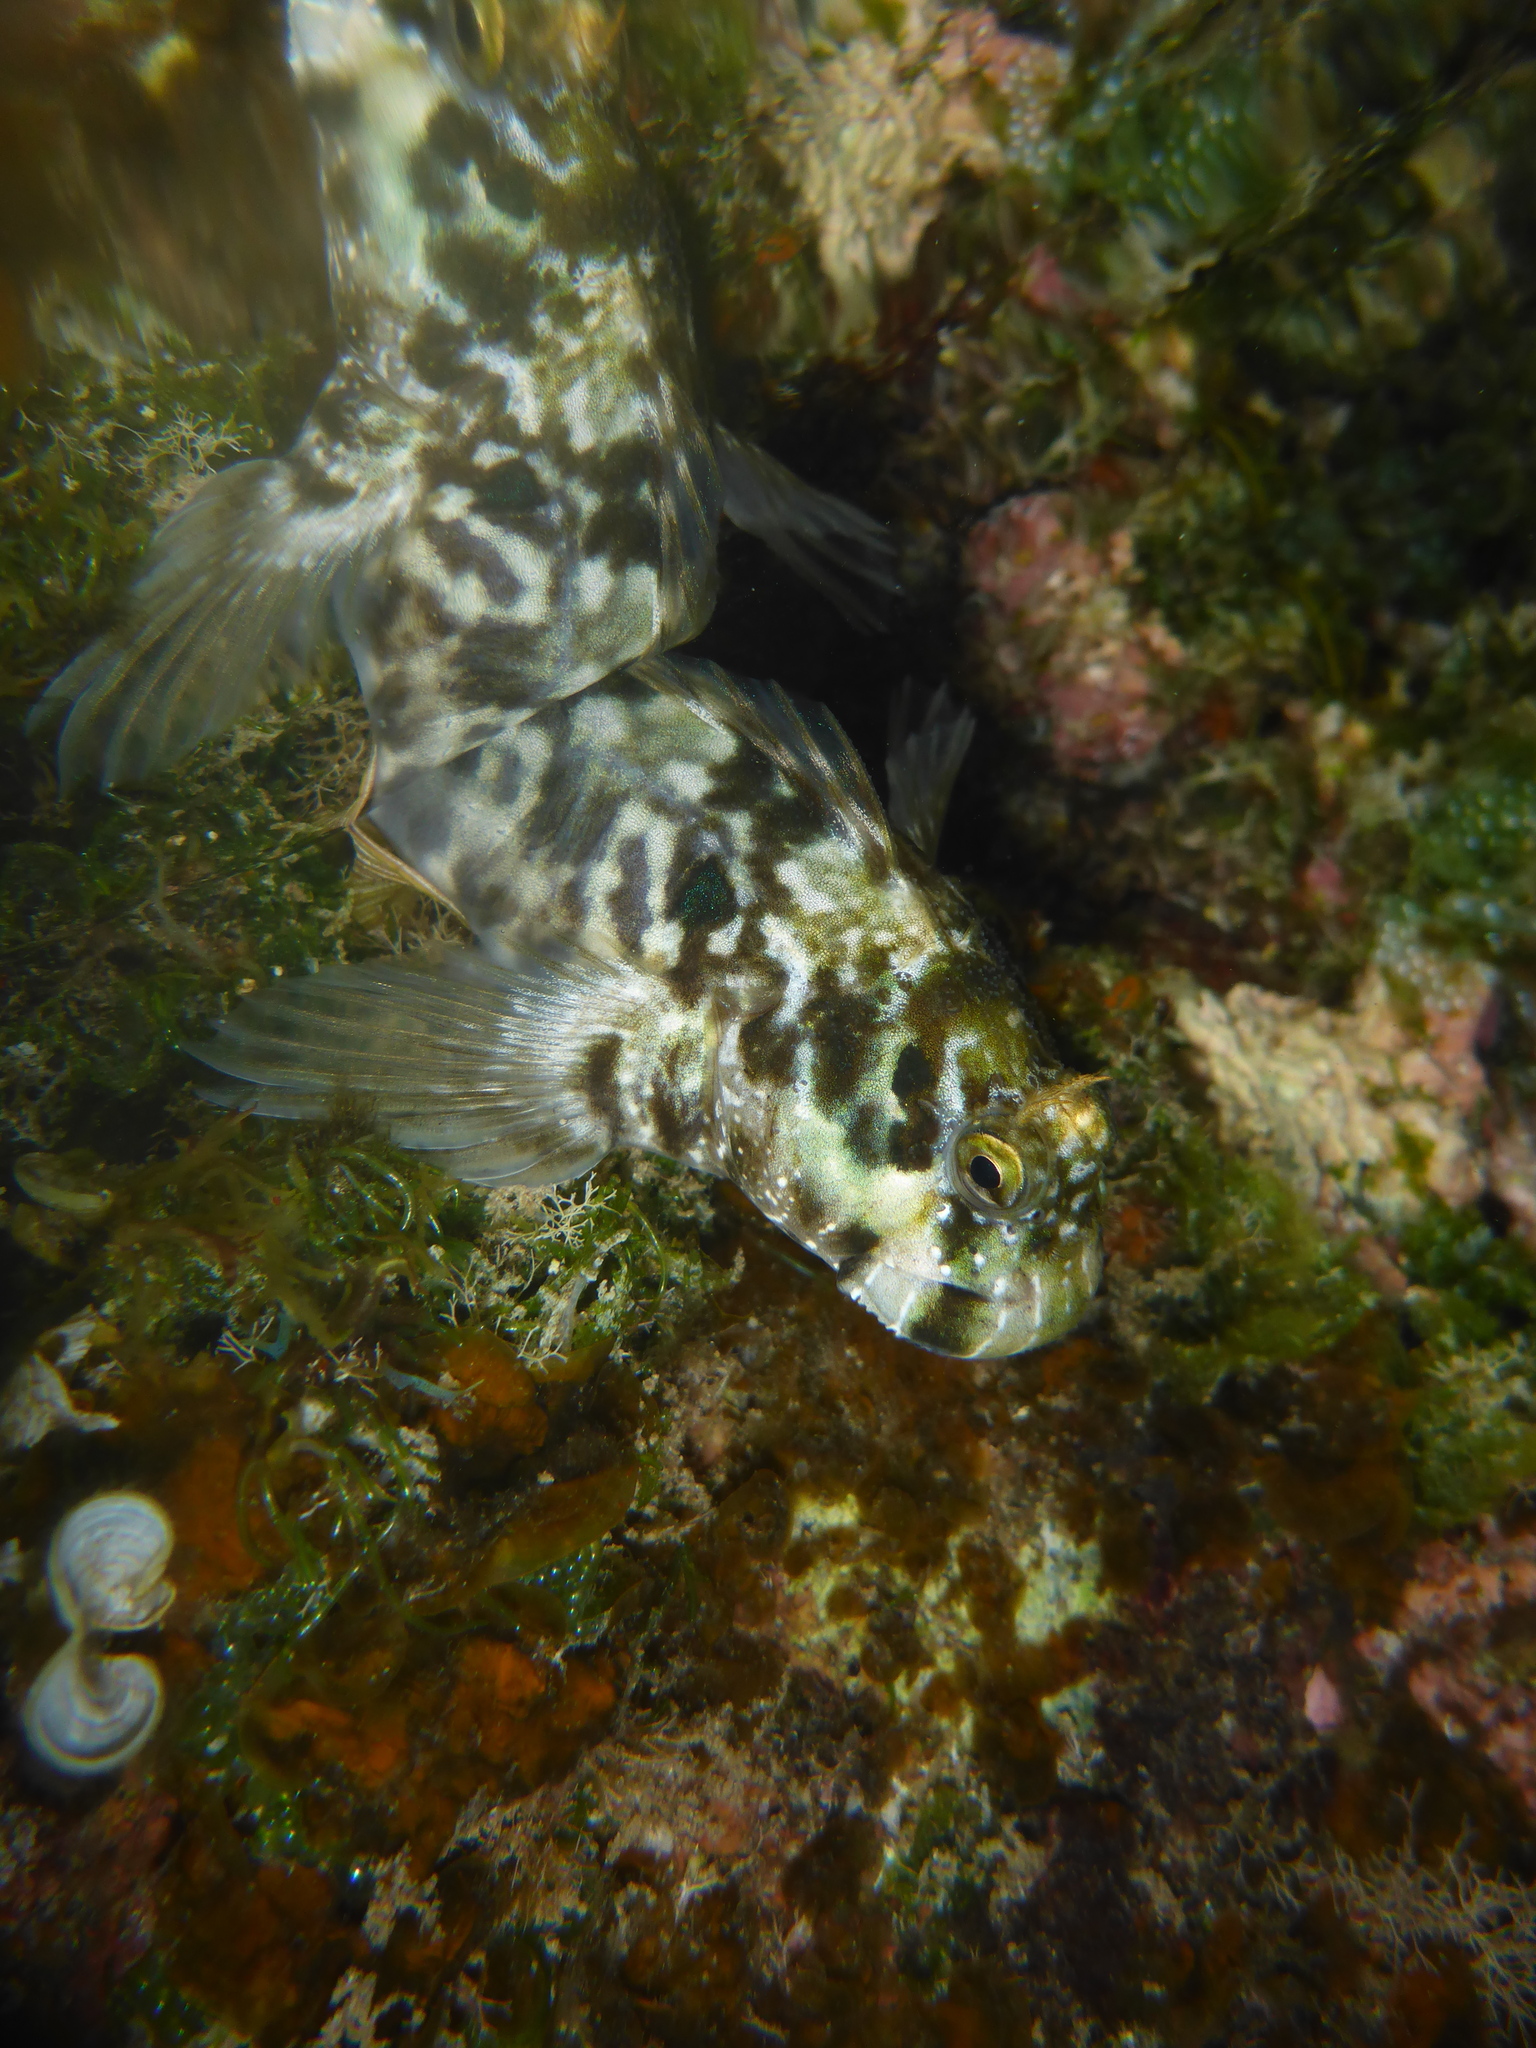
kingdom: Animalia
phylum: Chordata
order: Perciformes
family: Blenniidae
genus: Entomacrodus
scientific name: Entomacrodus marmoratus
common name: Marbled blenny
